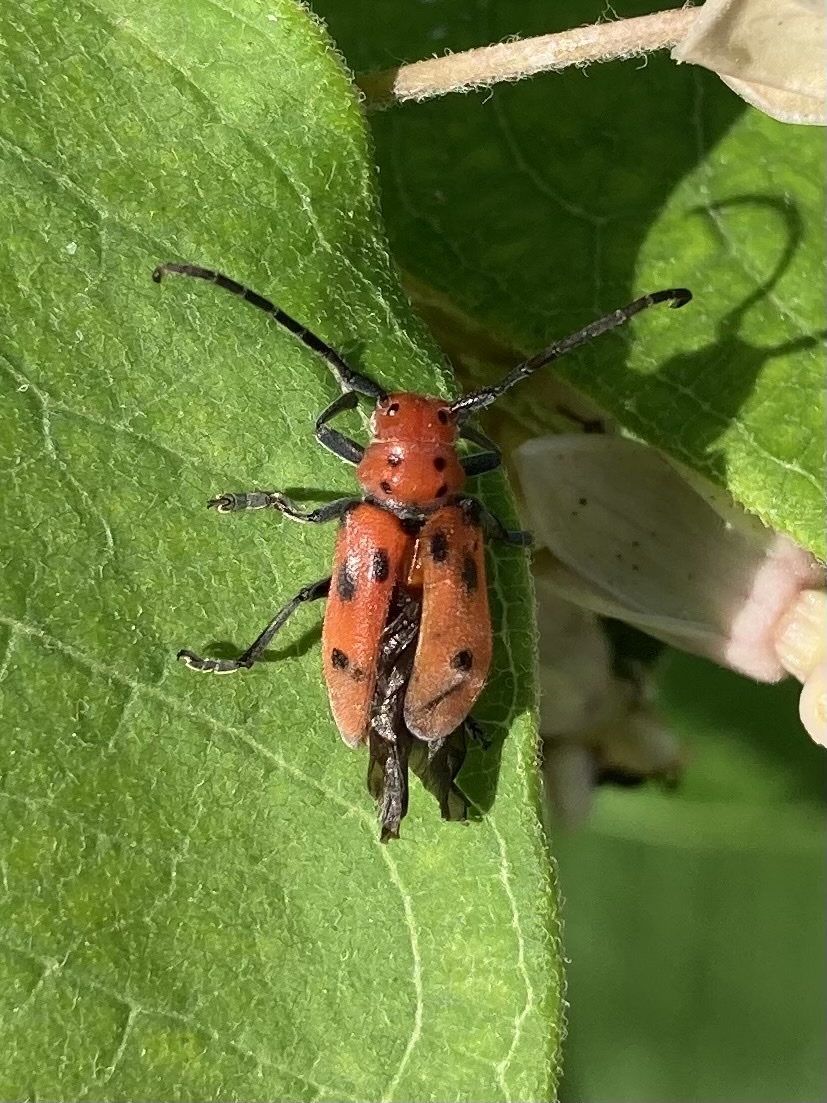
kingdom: Animalia
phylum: Arthropoda
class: Insecta
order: Coleoptera
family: Cerambycidae
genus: Tetraopes
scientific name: Tetraopes tetrophthalmus
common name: Red milkweed beetle
